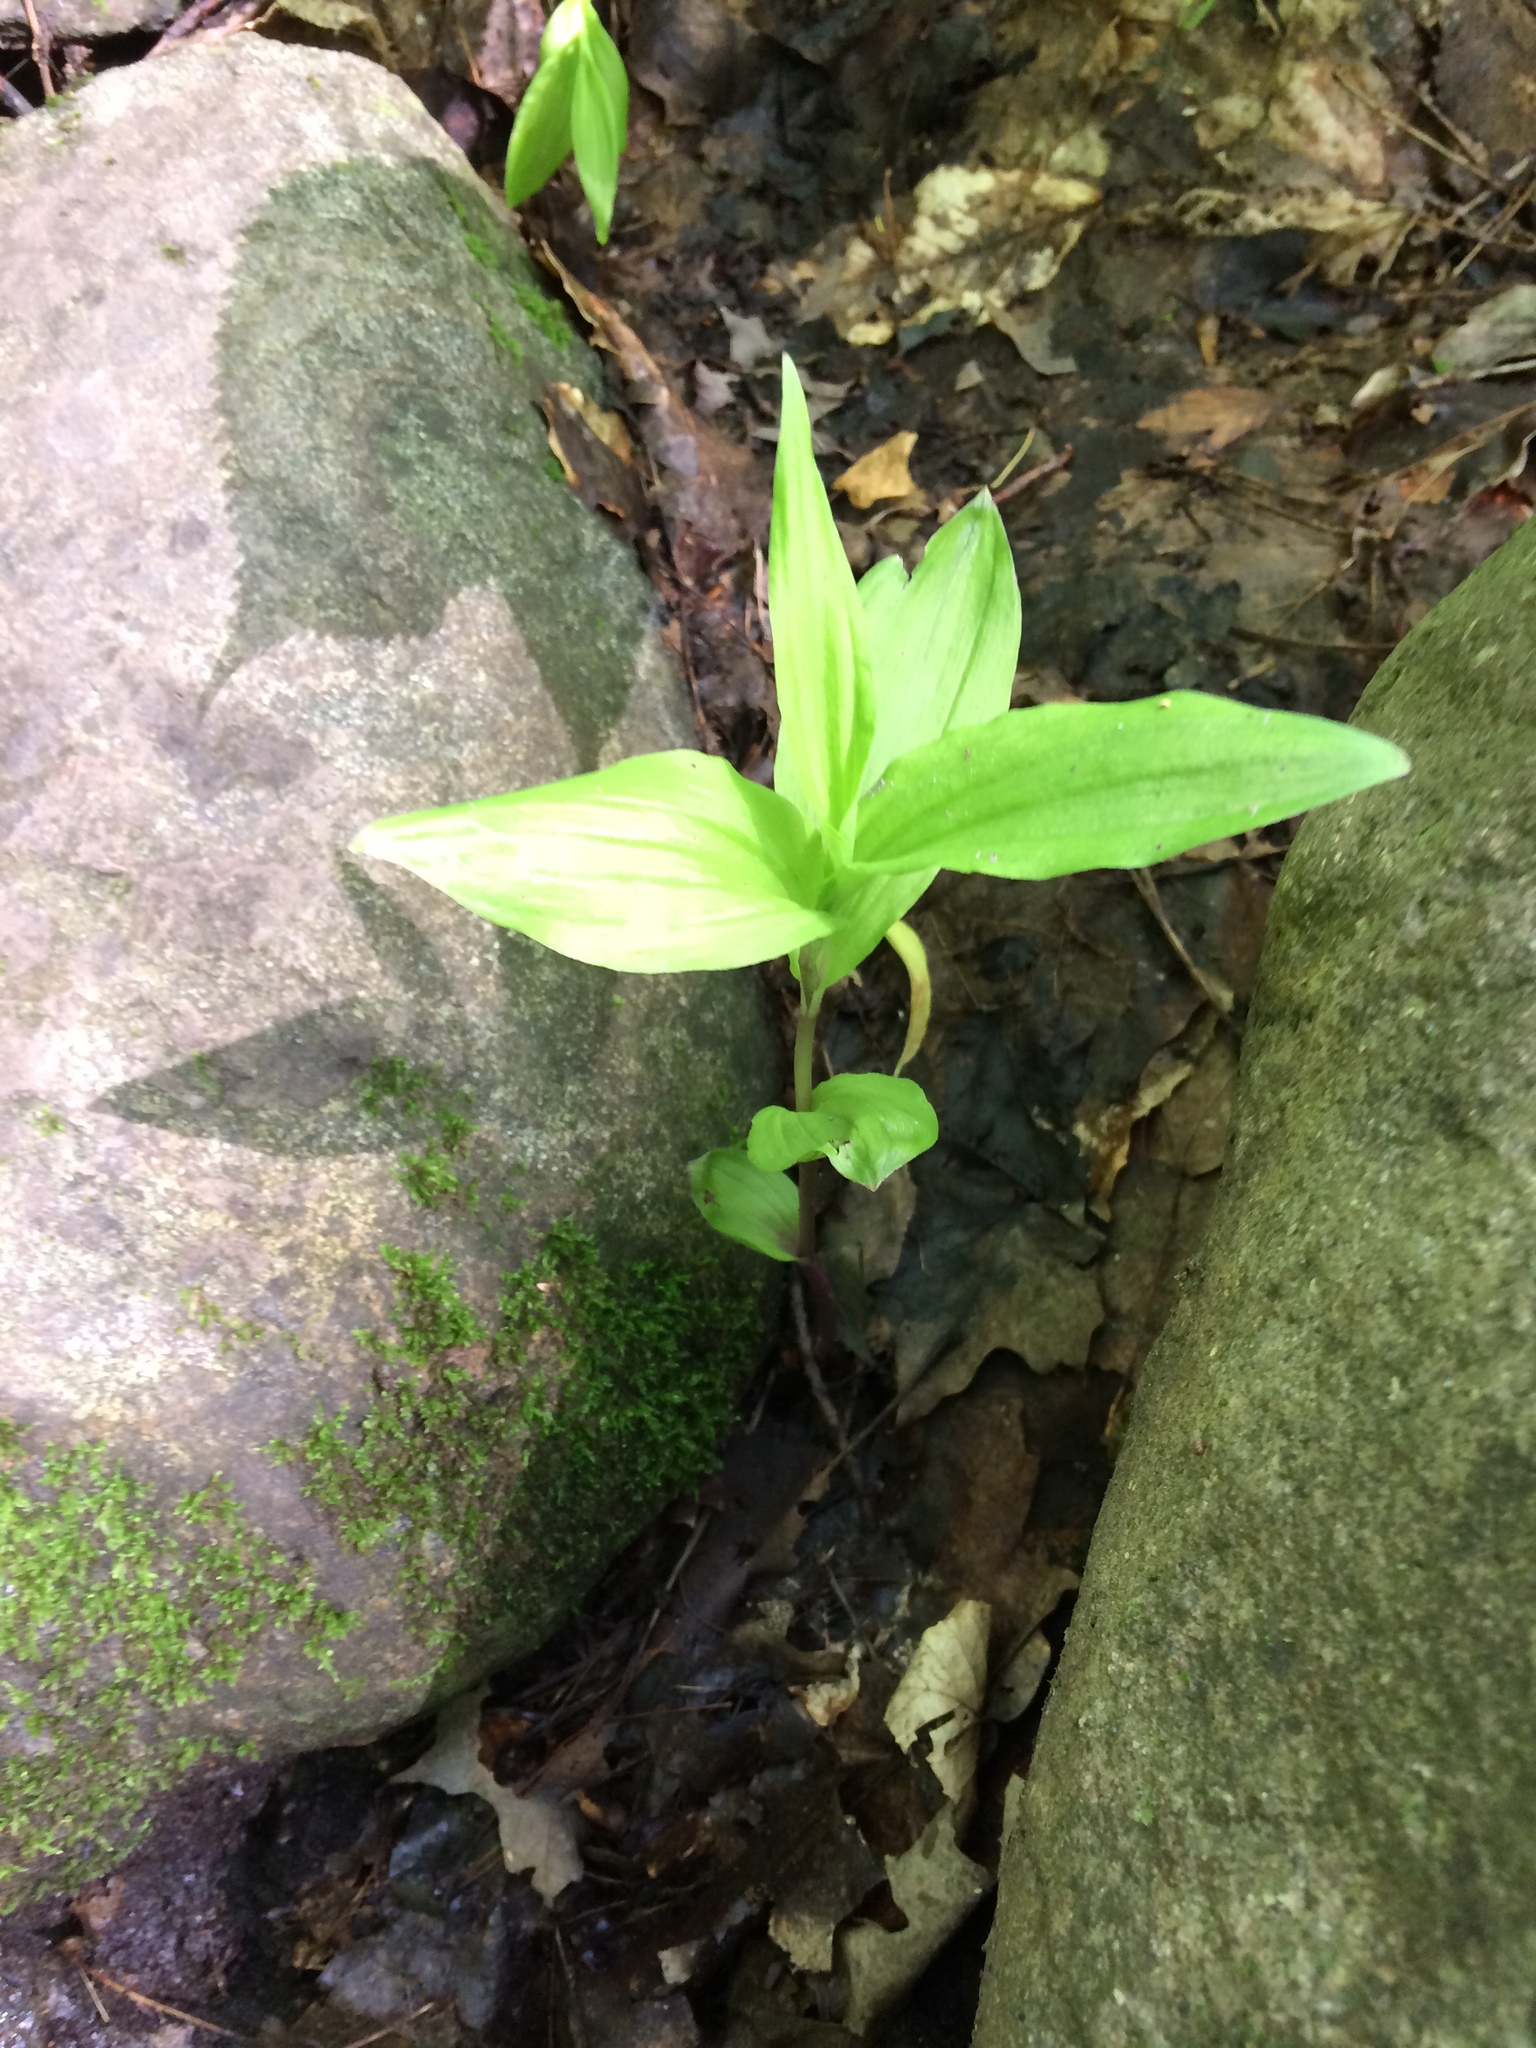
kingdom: Plantae
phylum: Tracheophyta
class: Liliopsida
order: Asparagales
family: Orchidaceae
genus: Epipactis
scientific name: Epipactis helleborine
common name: Broad-leaved helleborine
